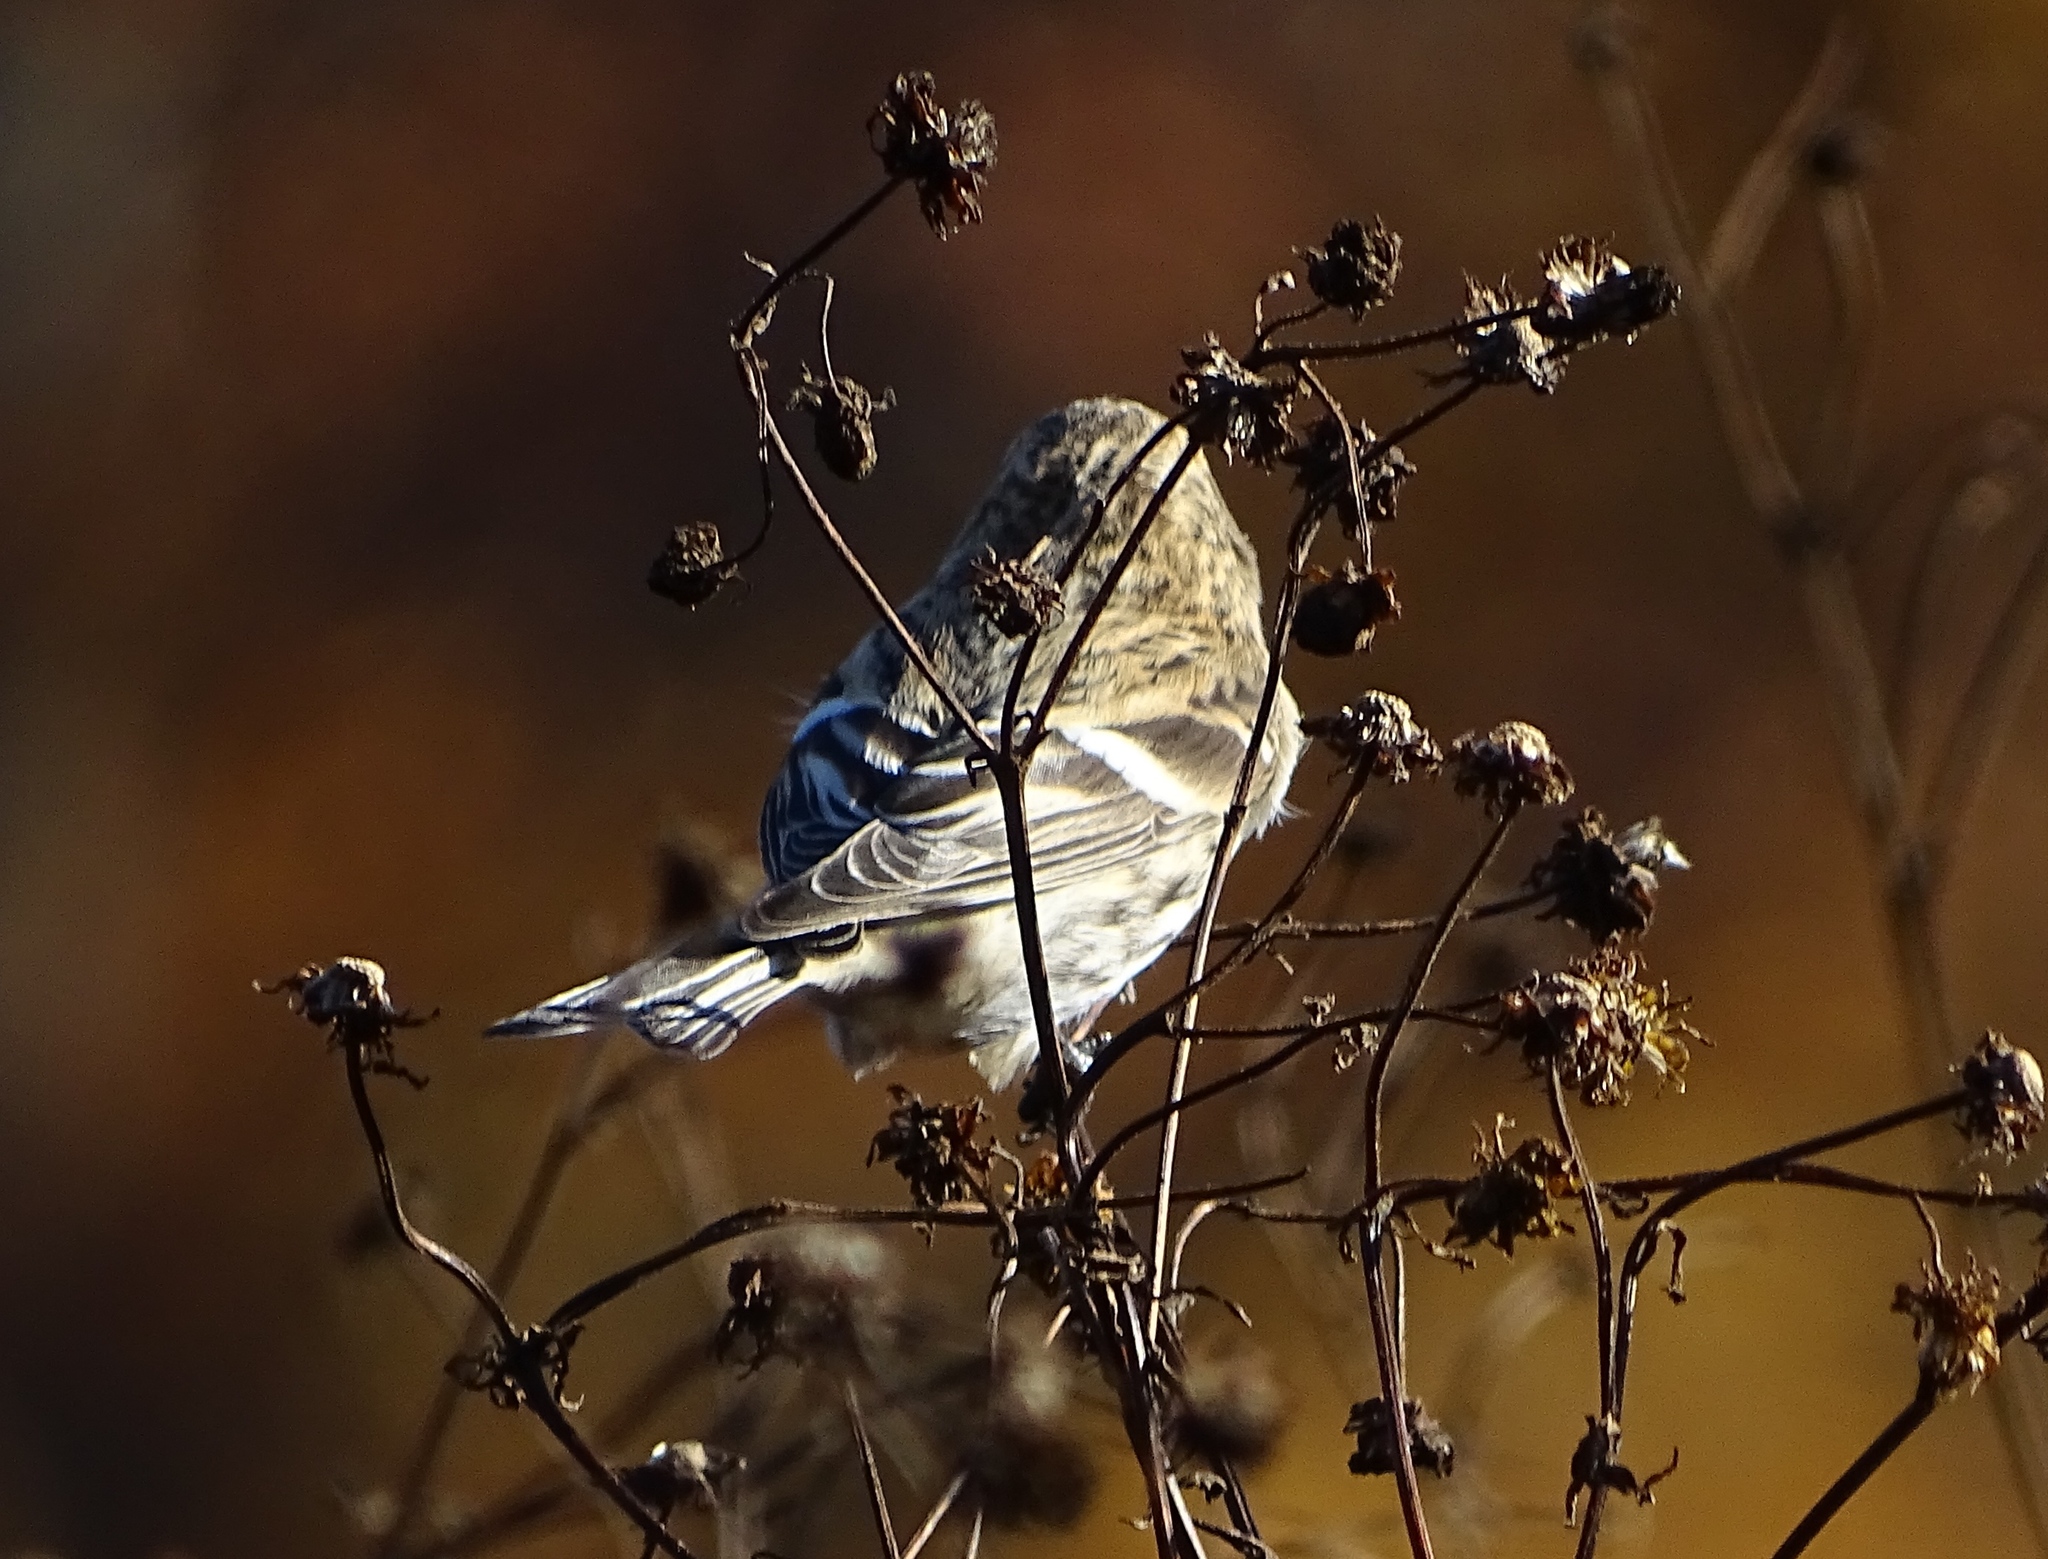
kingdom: Animalia
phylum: Chordata
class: Aves
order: Passeriformes
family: Fringillidae
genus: Acanthis
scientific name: Acanthis flammea
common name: Common redpoll
